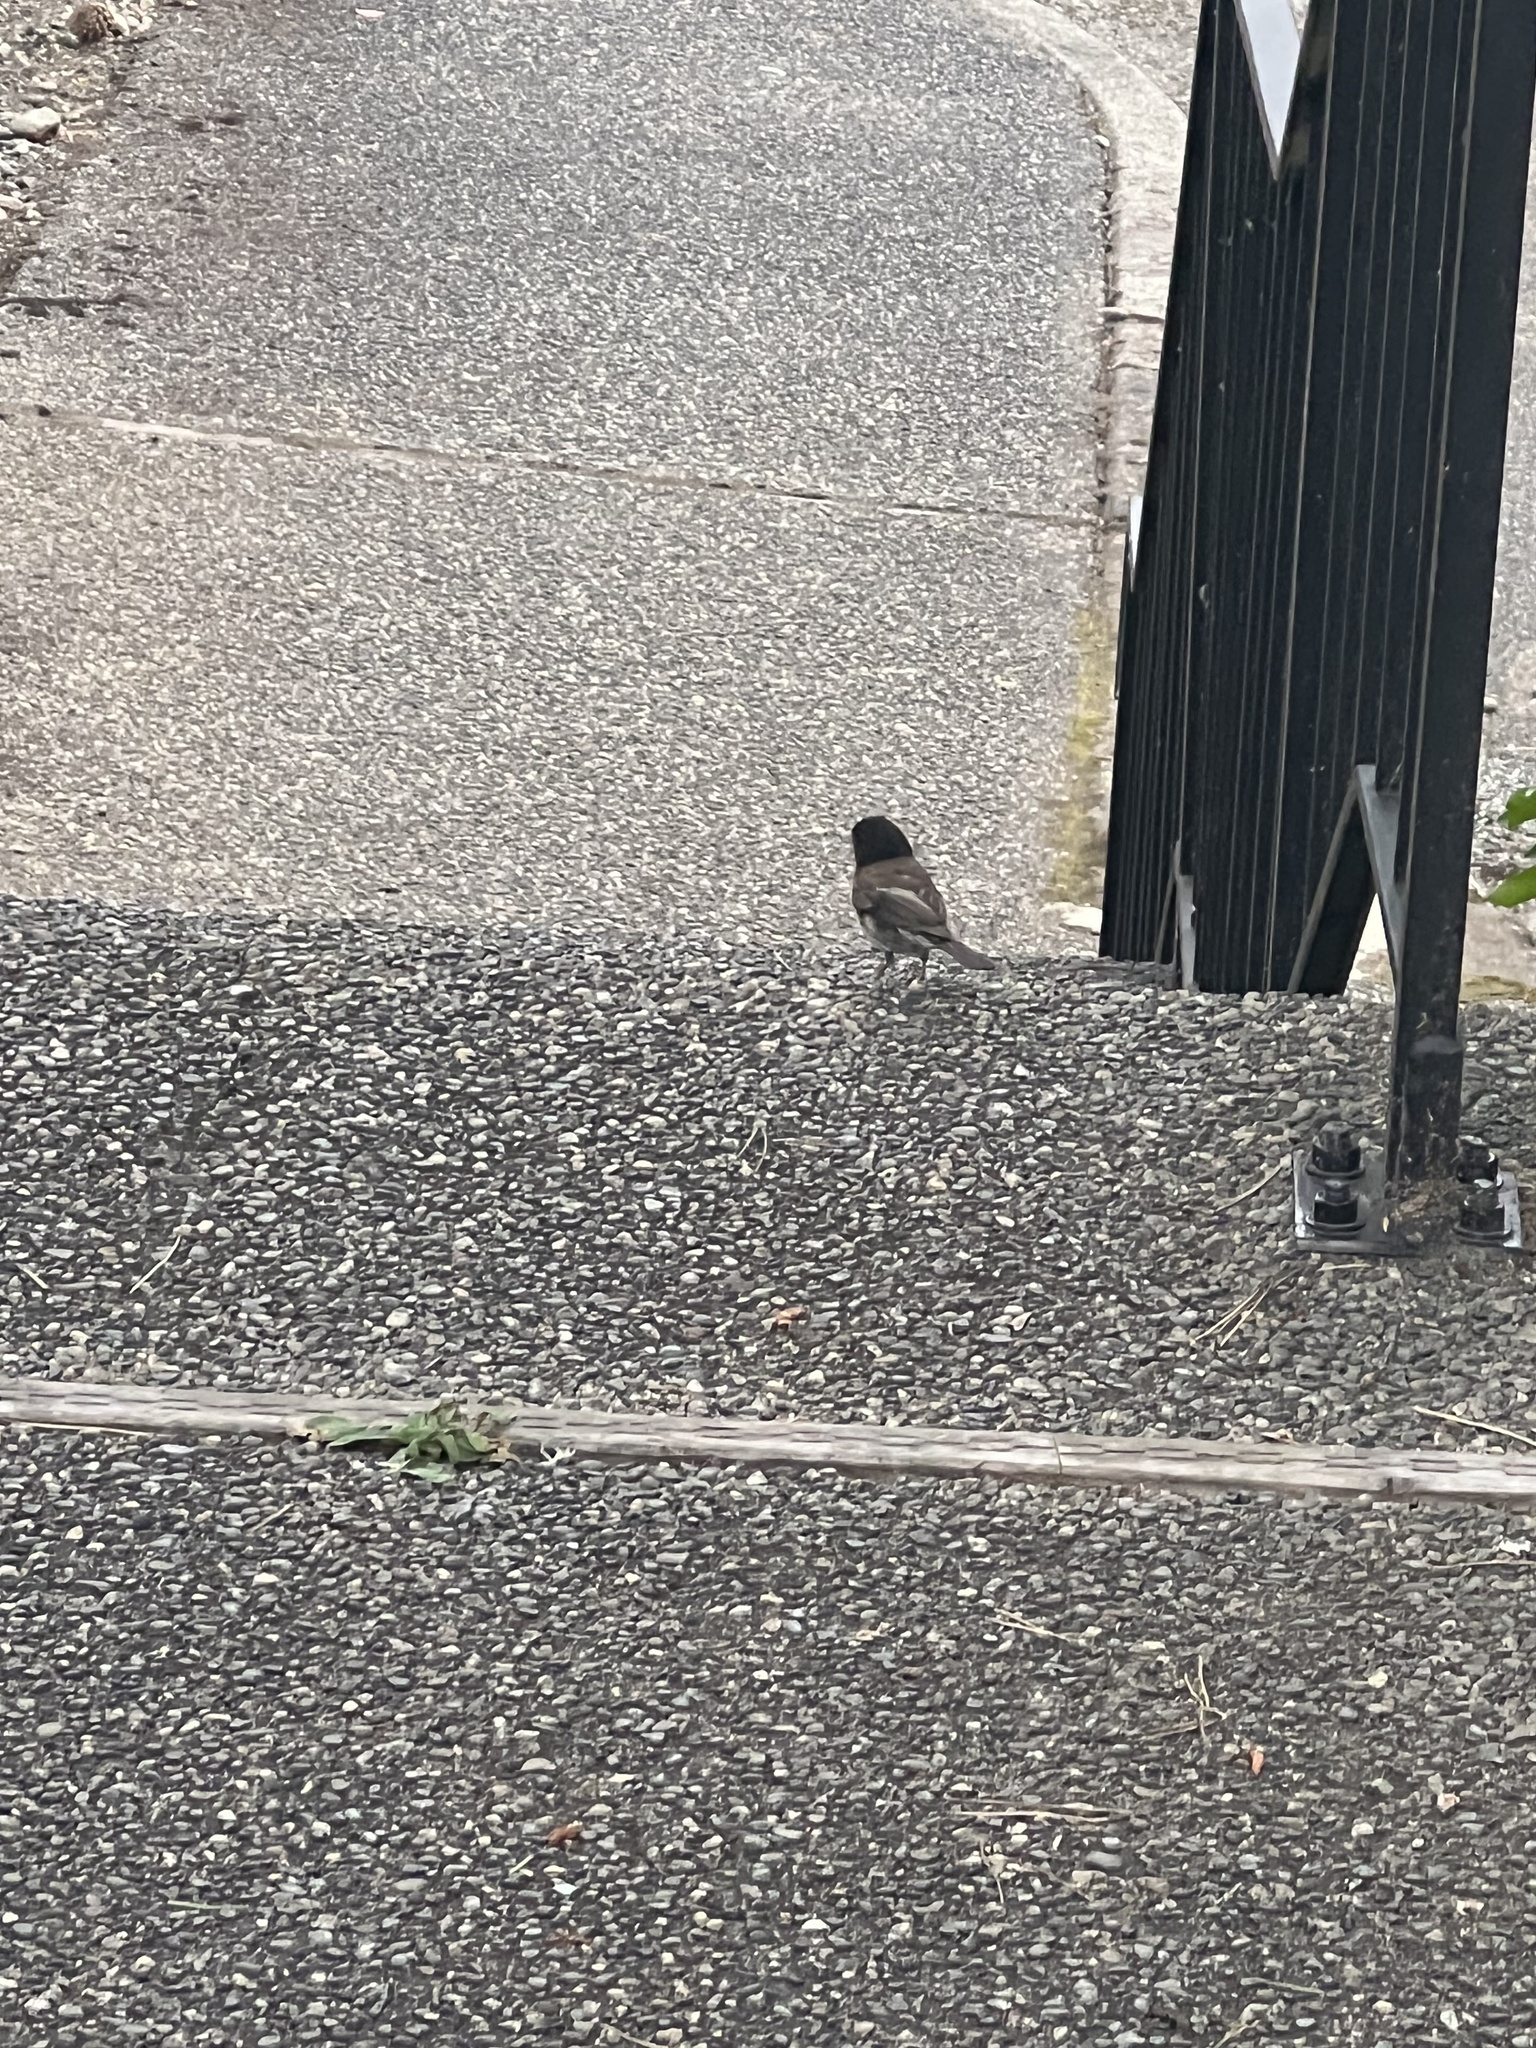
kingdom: Animalia
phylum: Chordata
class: Aves
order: Passeriformes
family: Passerellidae
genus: Junco
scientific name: Junco hyemalis
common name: Dark-eyed junco
